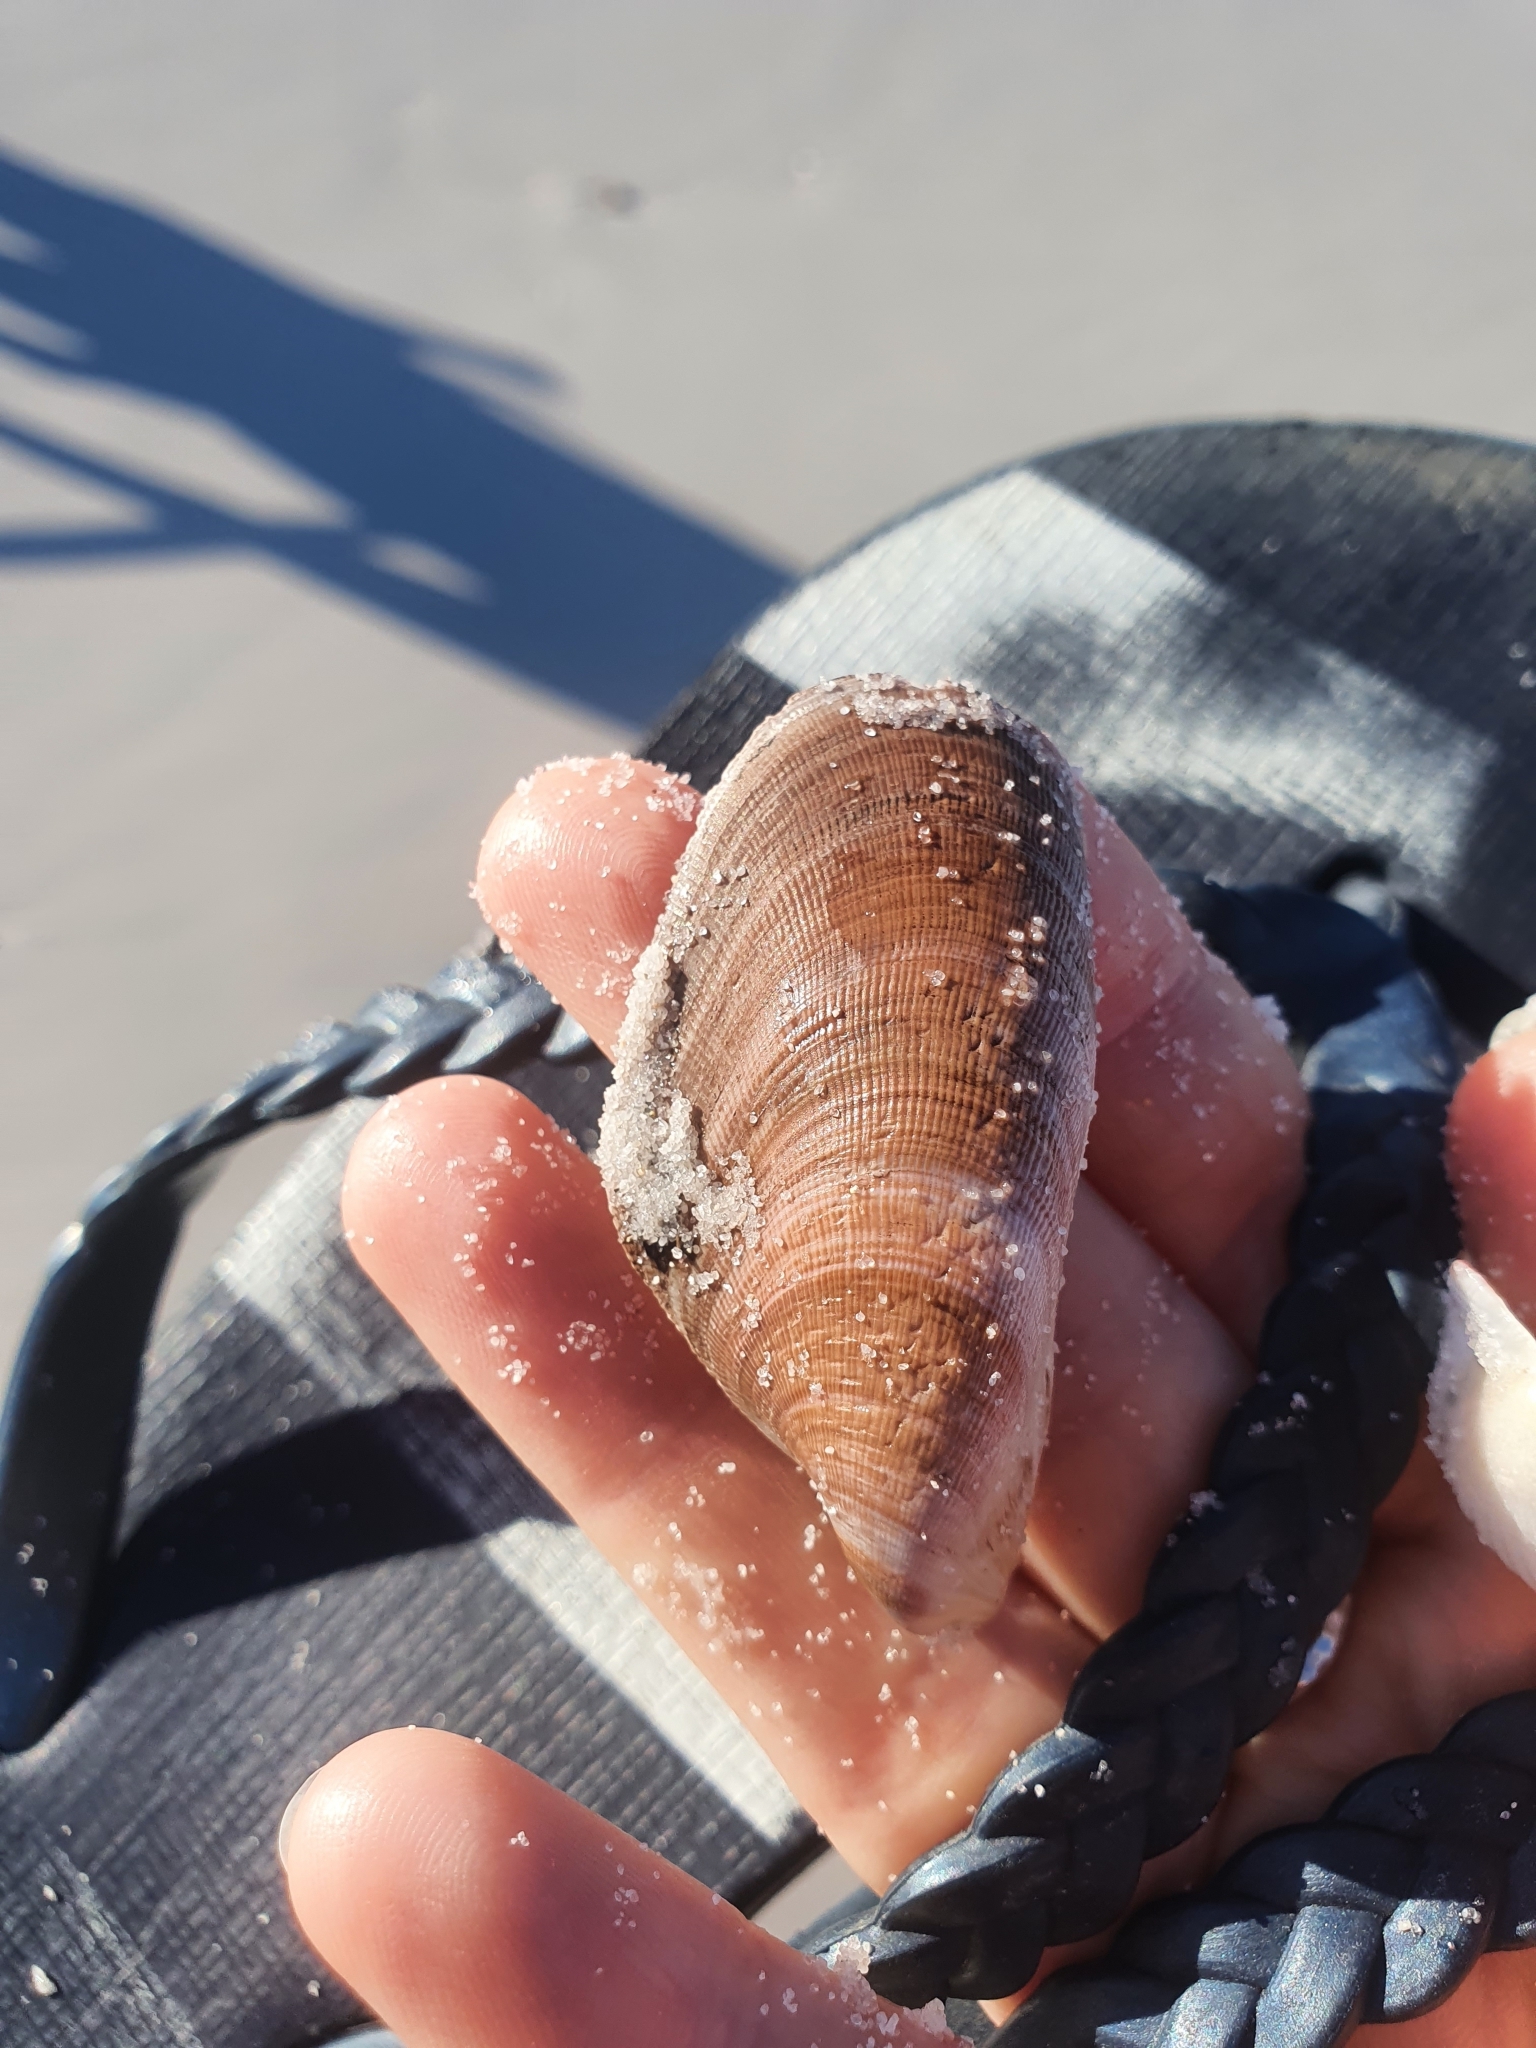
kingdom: Animalia
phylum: Mollusca
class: Bivalvia
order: Mytilida
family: Mytilidae
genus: Trichomya
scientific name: Trichomya hirsuta
